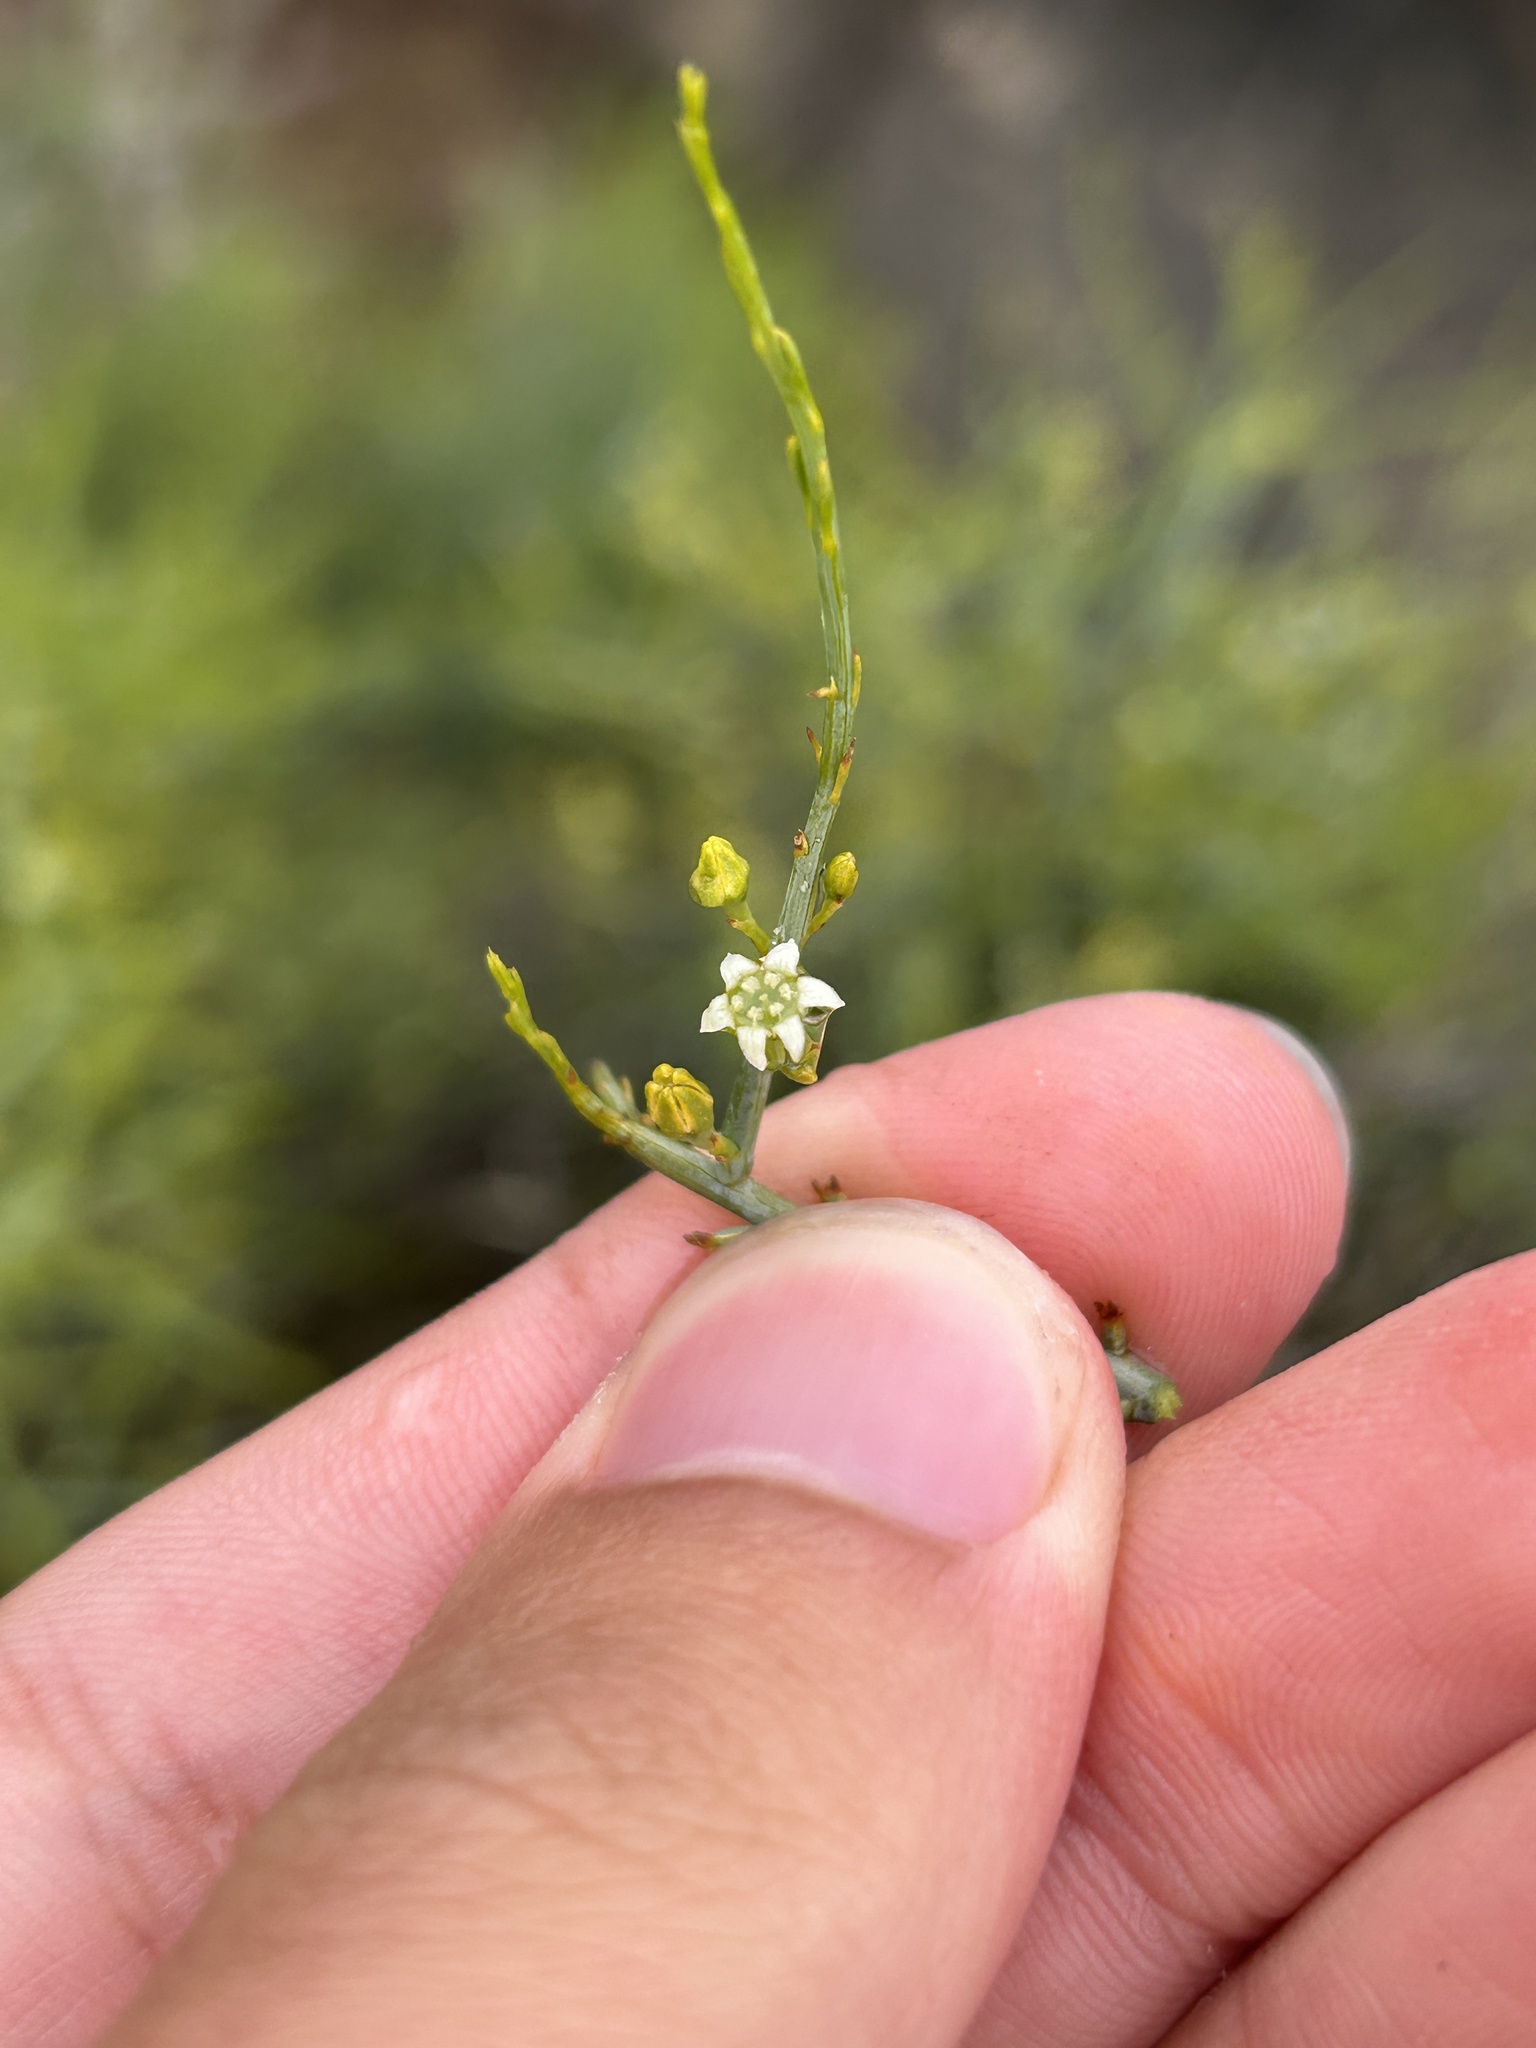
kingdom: Plantae
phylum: Tracheophyta
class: Magnoliopsida
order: Santalales
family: Thesiaceae
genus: Lacomucinaea
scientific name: Lacomucinaea lineata
